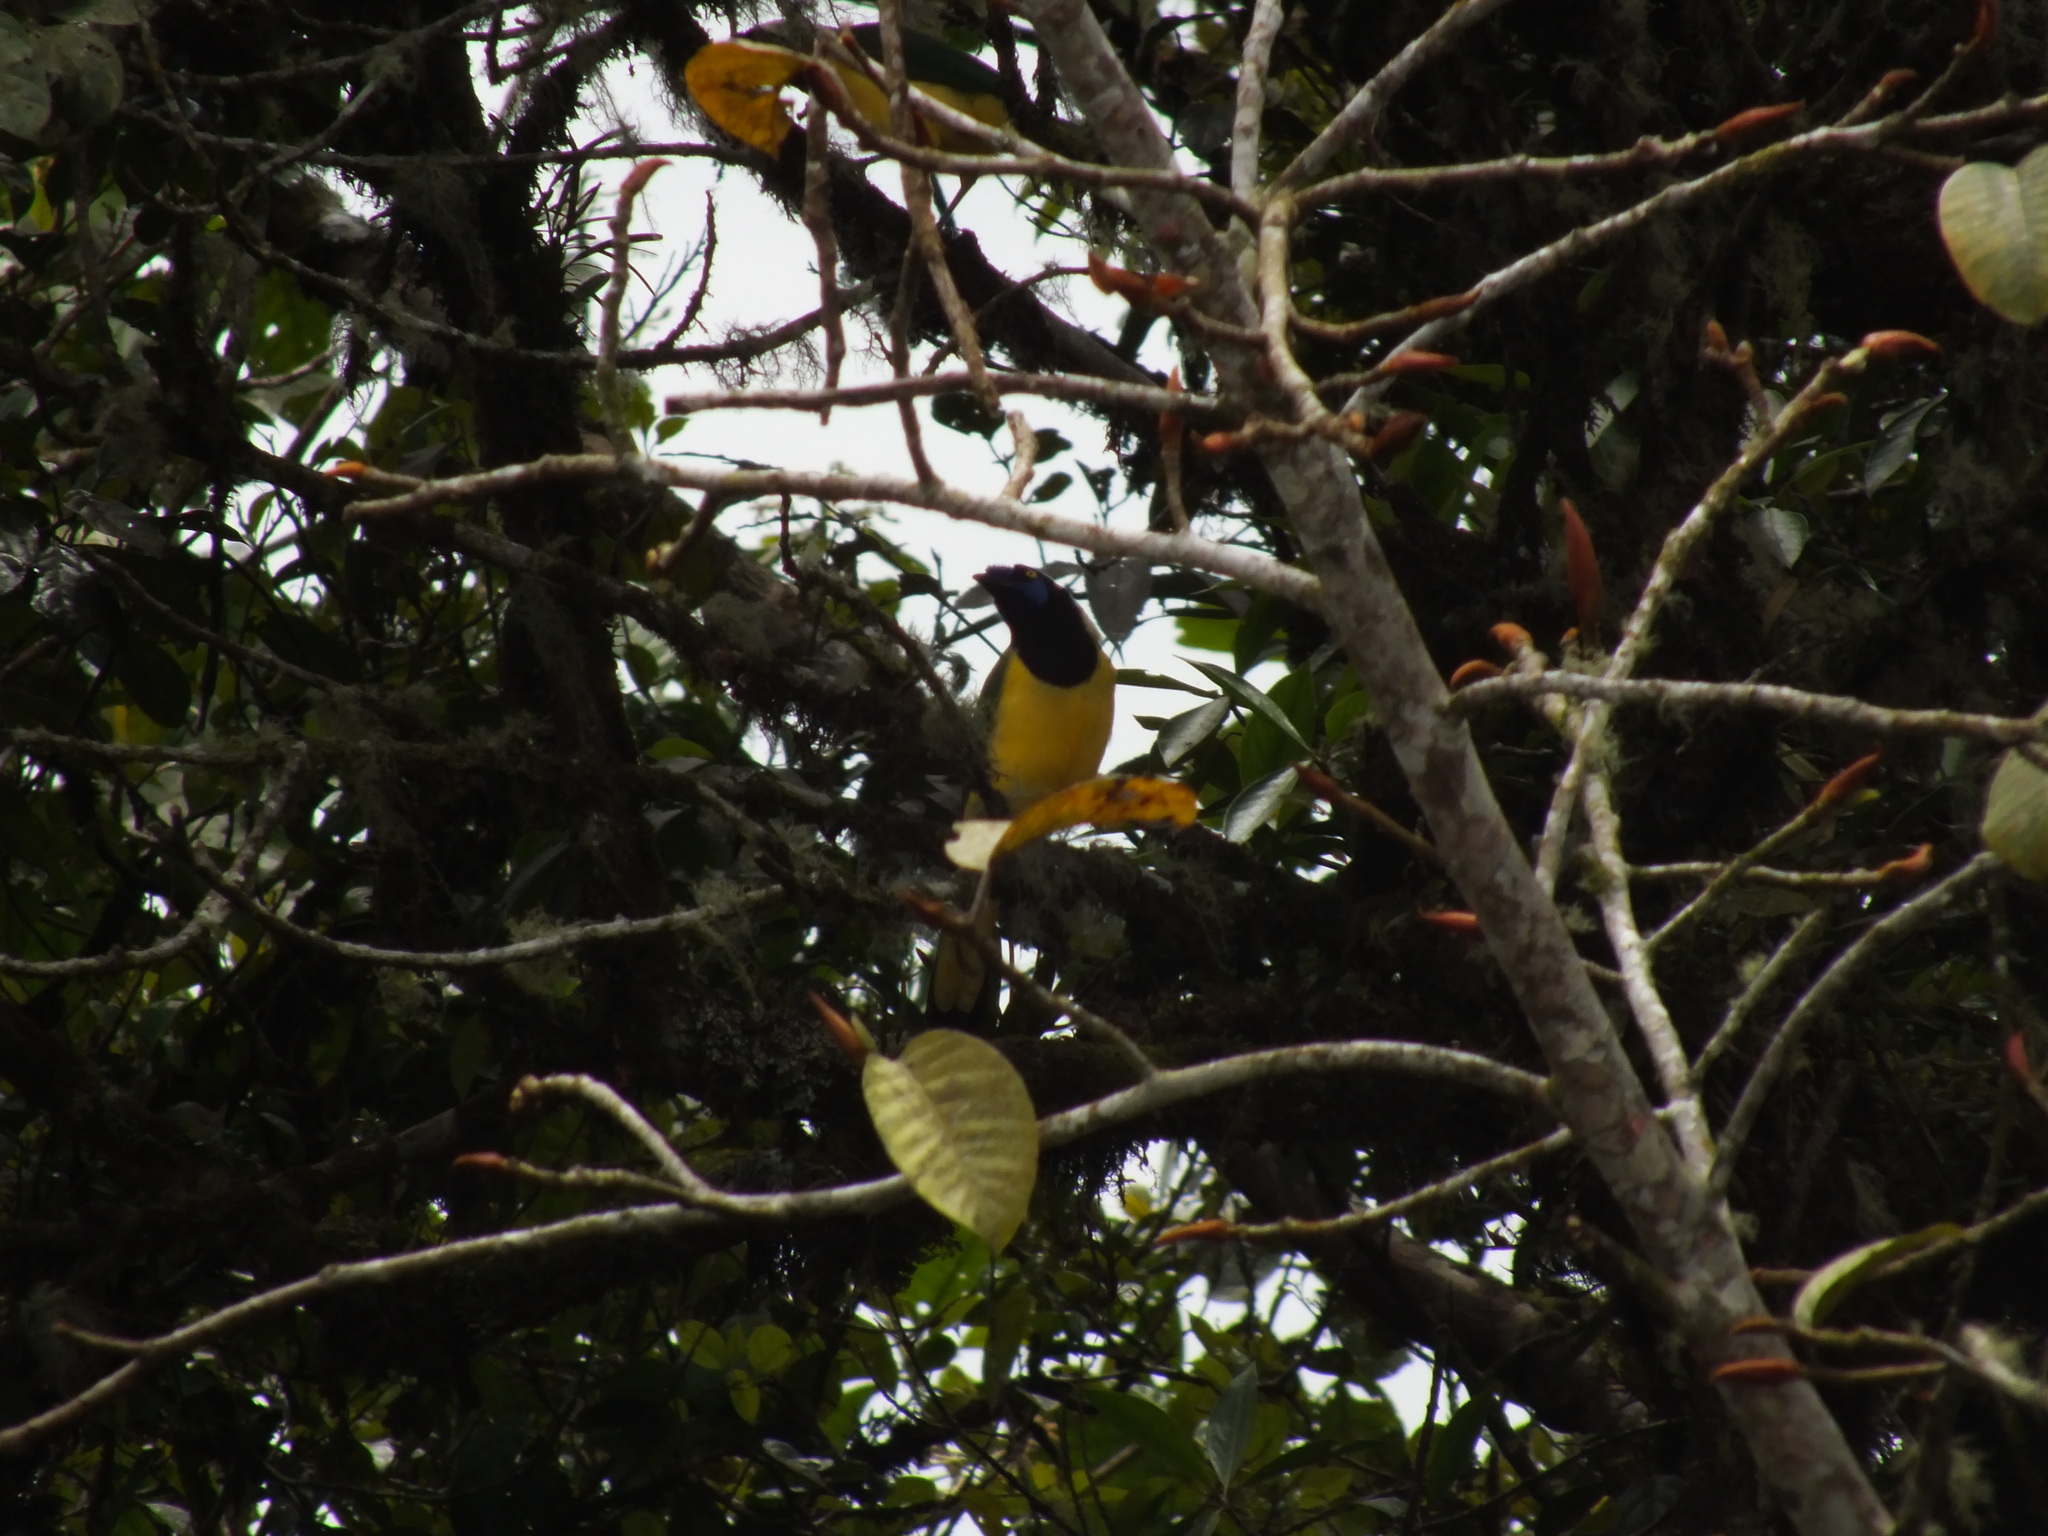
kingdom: Animalia
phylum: Chordata
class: Aves
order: Passeriformes
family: Corvidae
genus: Cyanocorax
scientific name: Cyanocorax yncas
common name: Green jay
